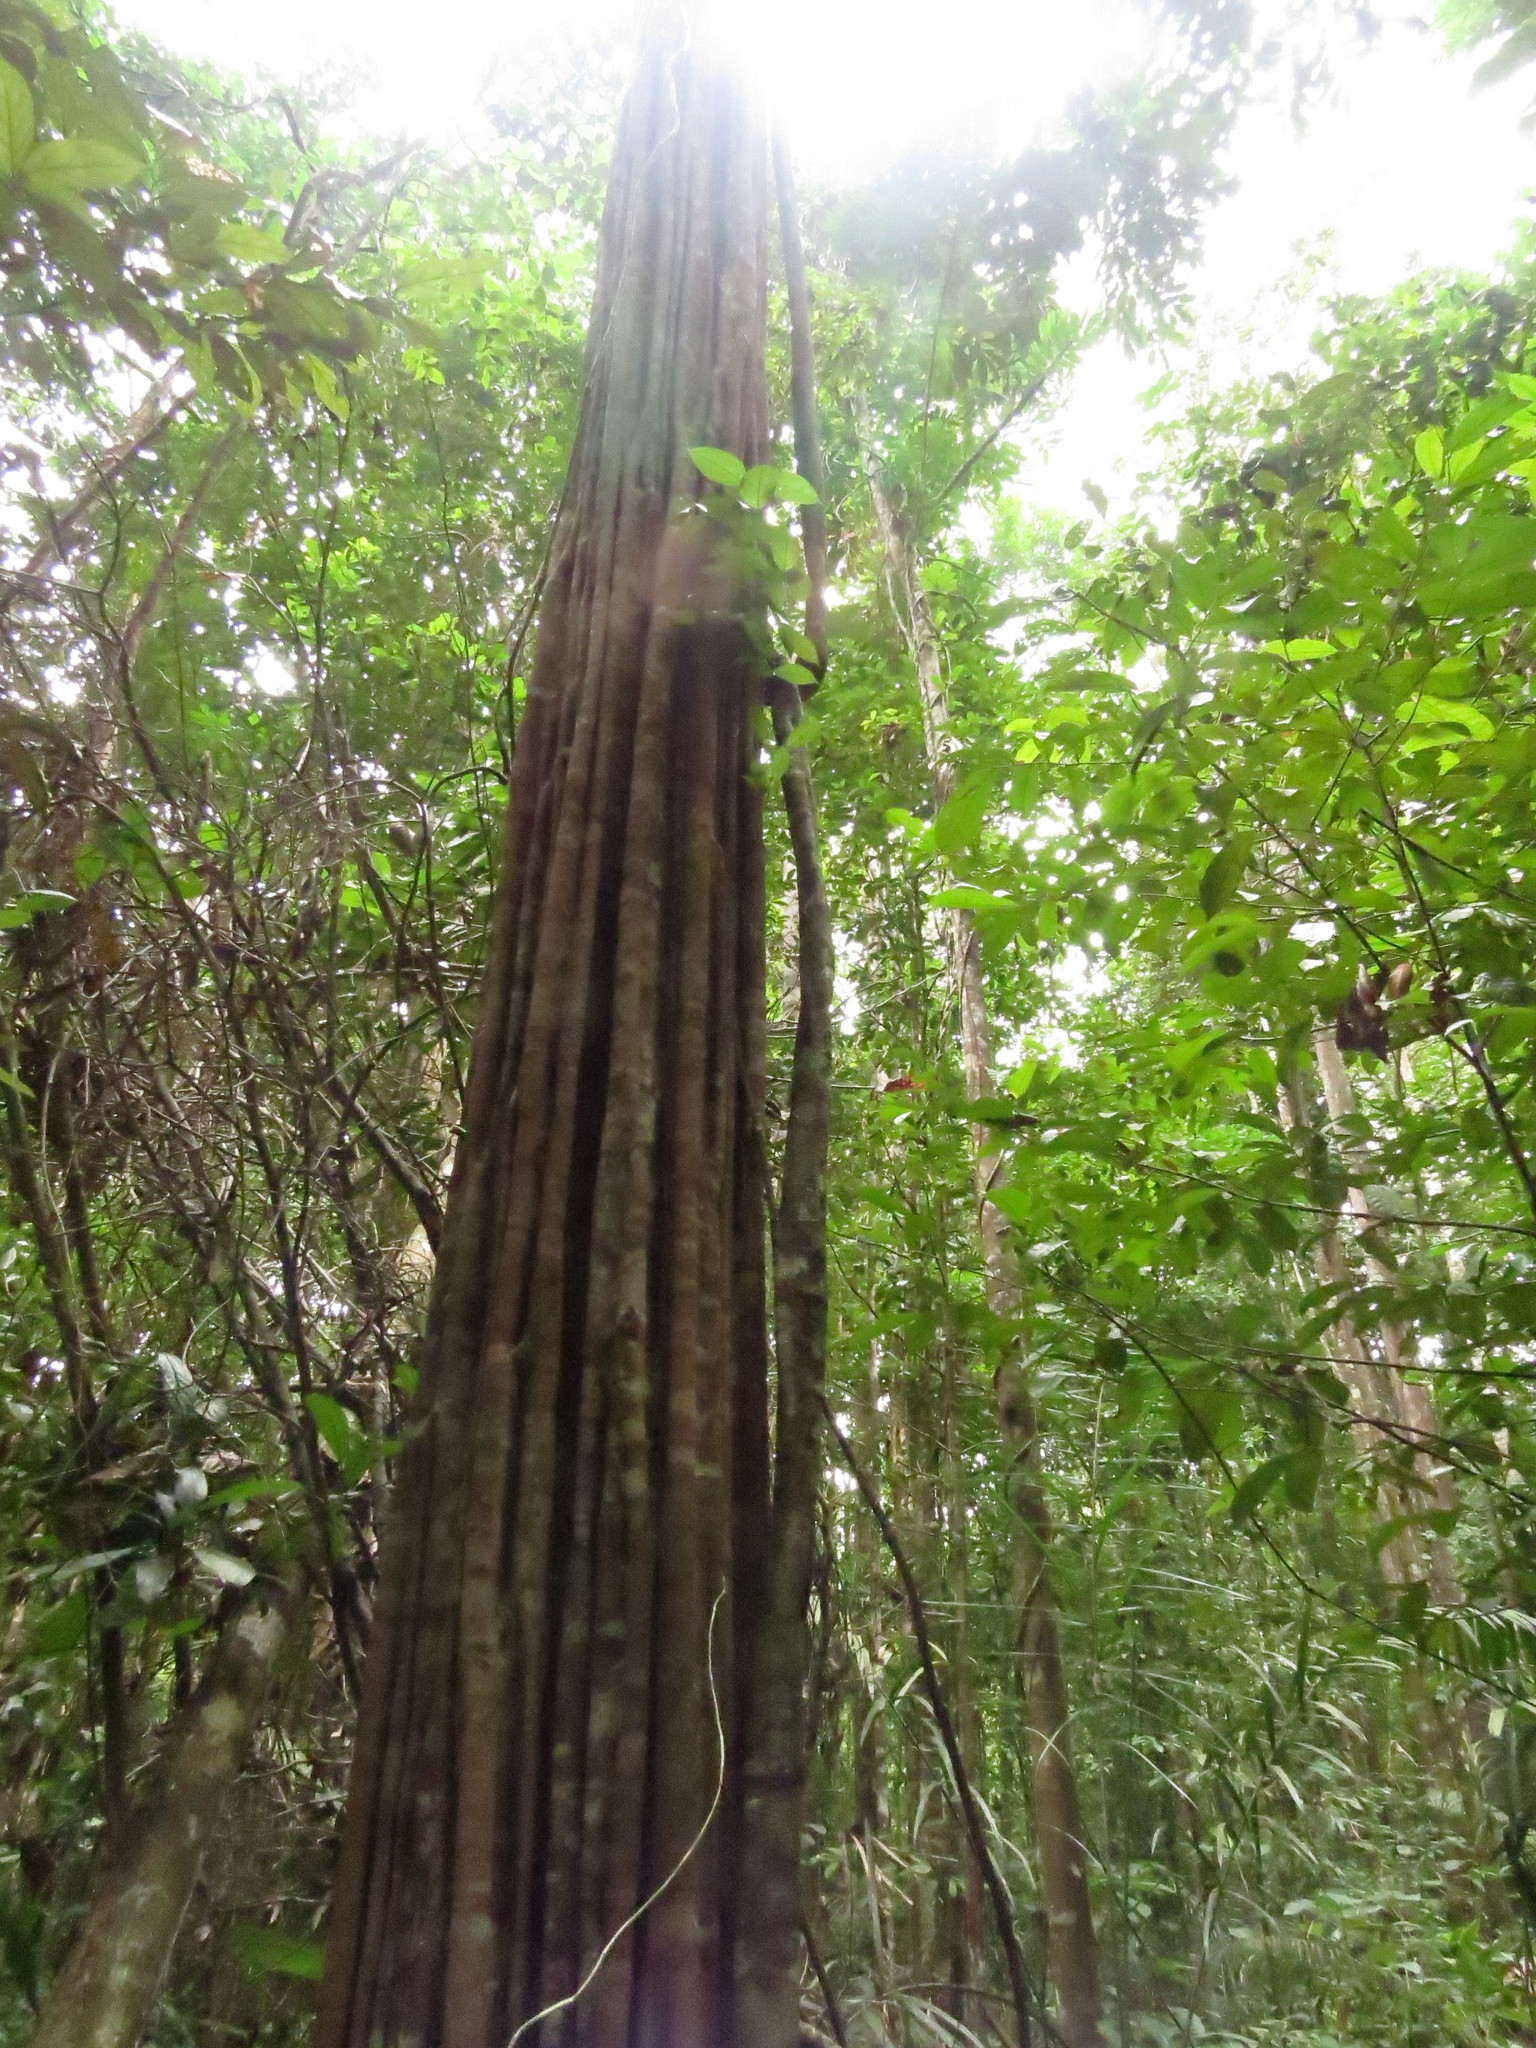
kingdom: Plantae
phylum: Tracheophyta
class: Magnoliopsida
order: Gentianales
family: Apocynaceae
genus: Aspidosperma
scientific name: Aspidosperma excelsum
